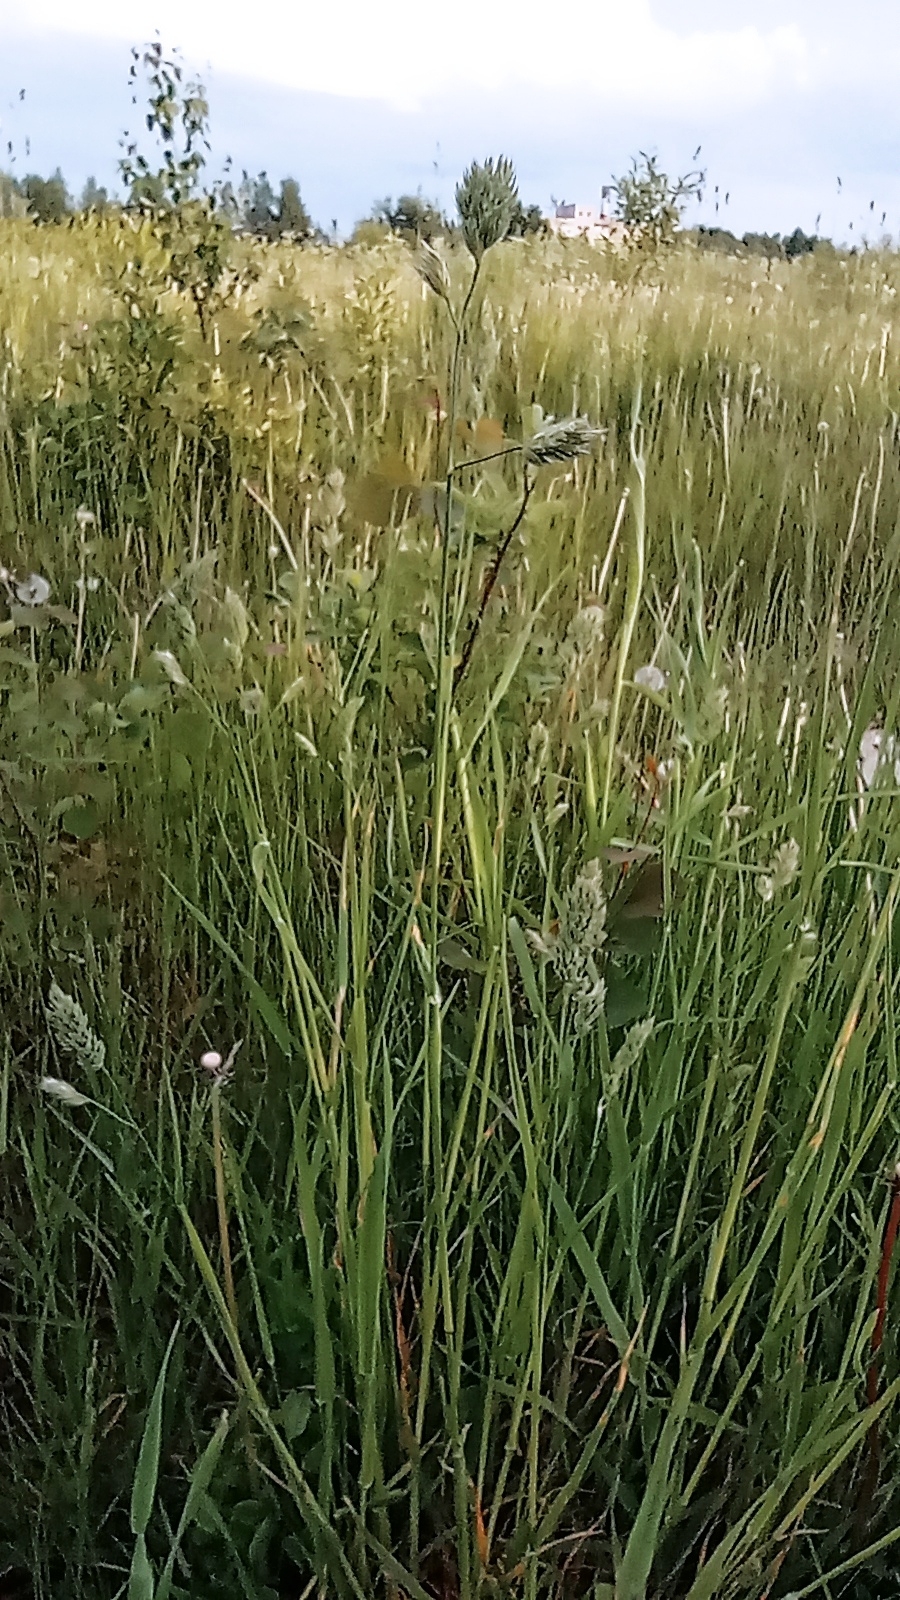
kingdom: Plantae
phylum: Tracheophyta
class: Liliopsida
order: Poales
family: Poaceae
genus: Dactylis
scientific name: Dactylis glomerata
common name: Orchardgrass
